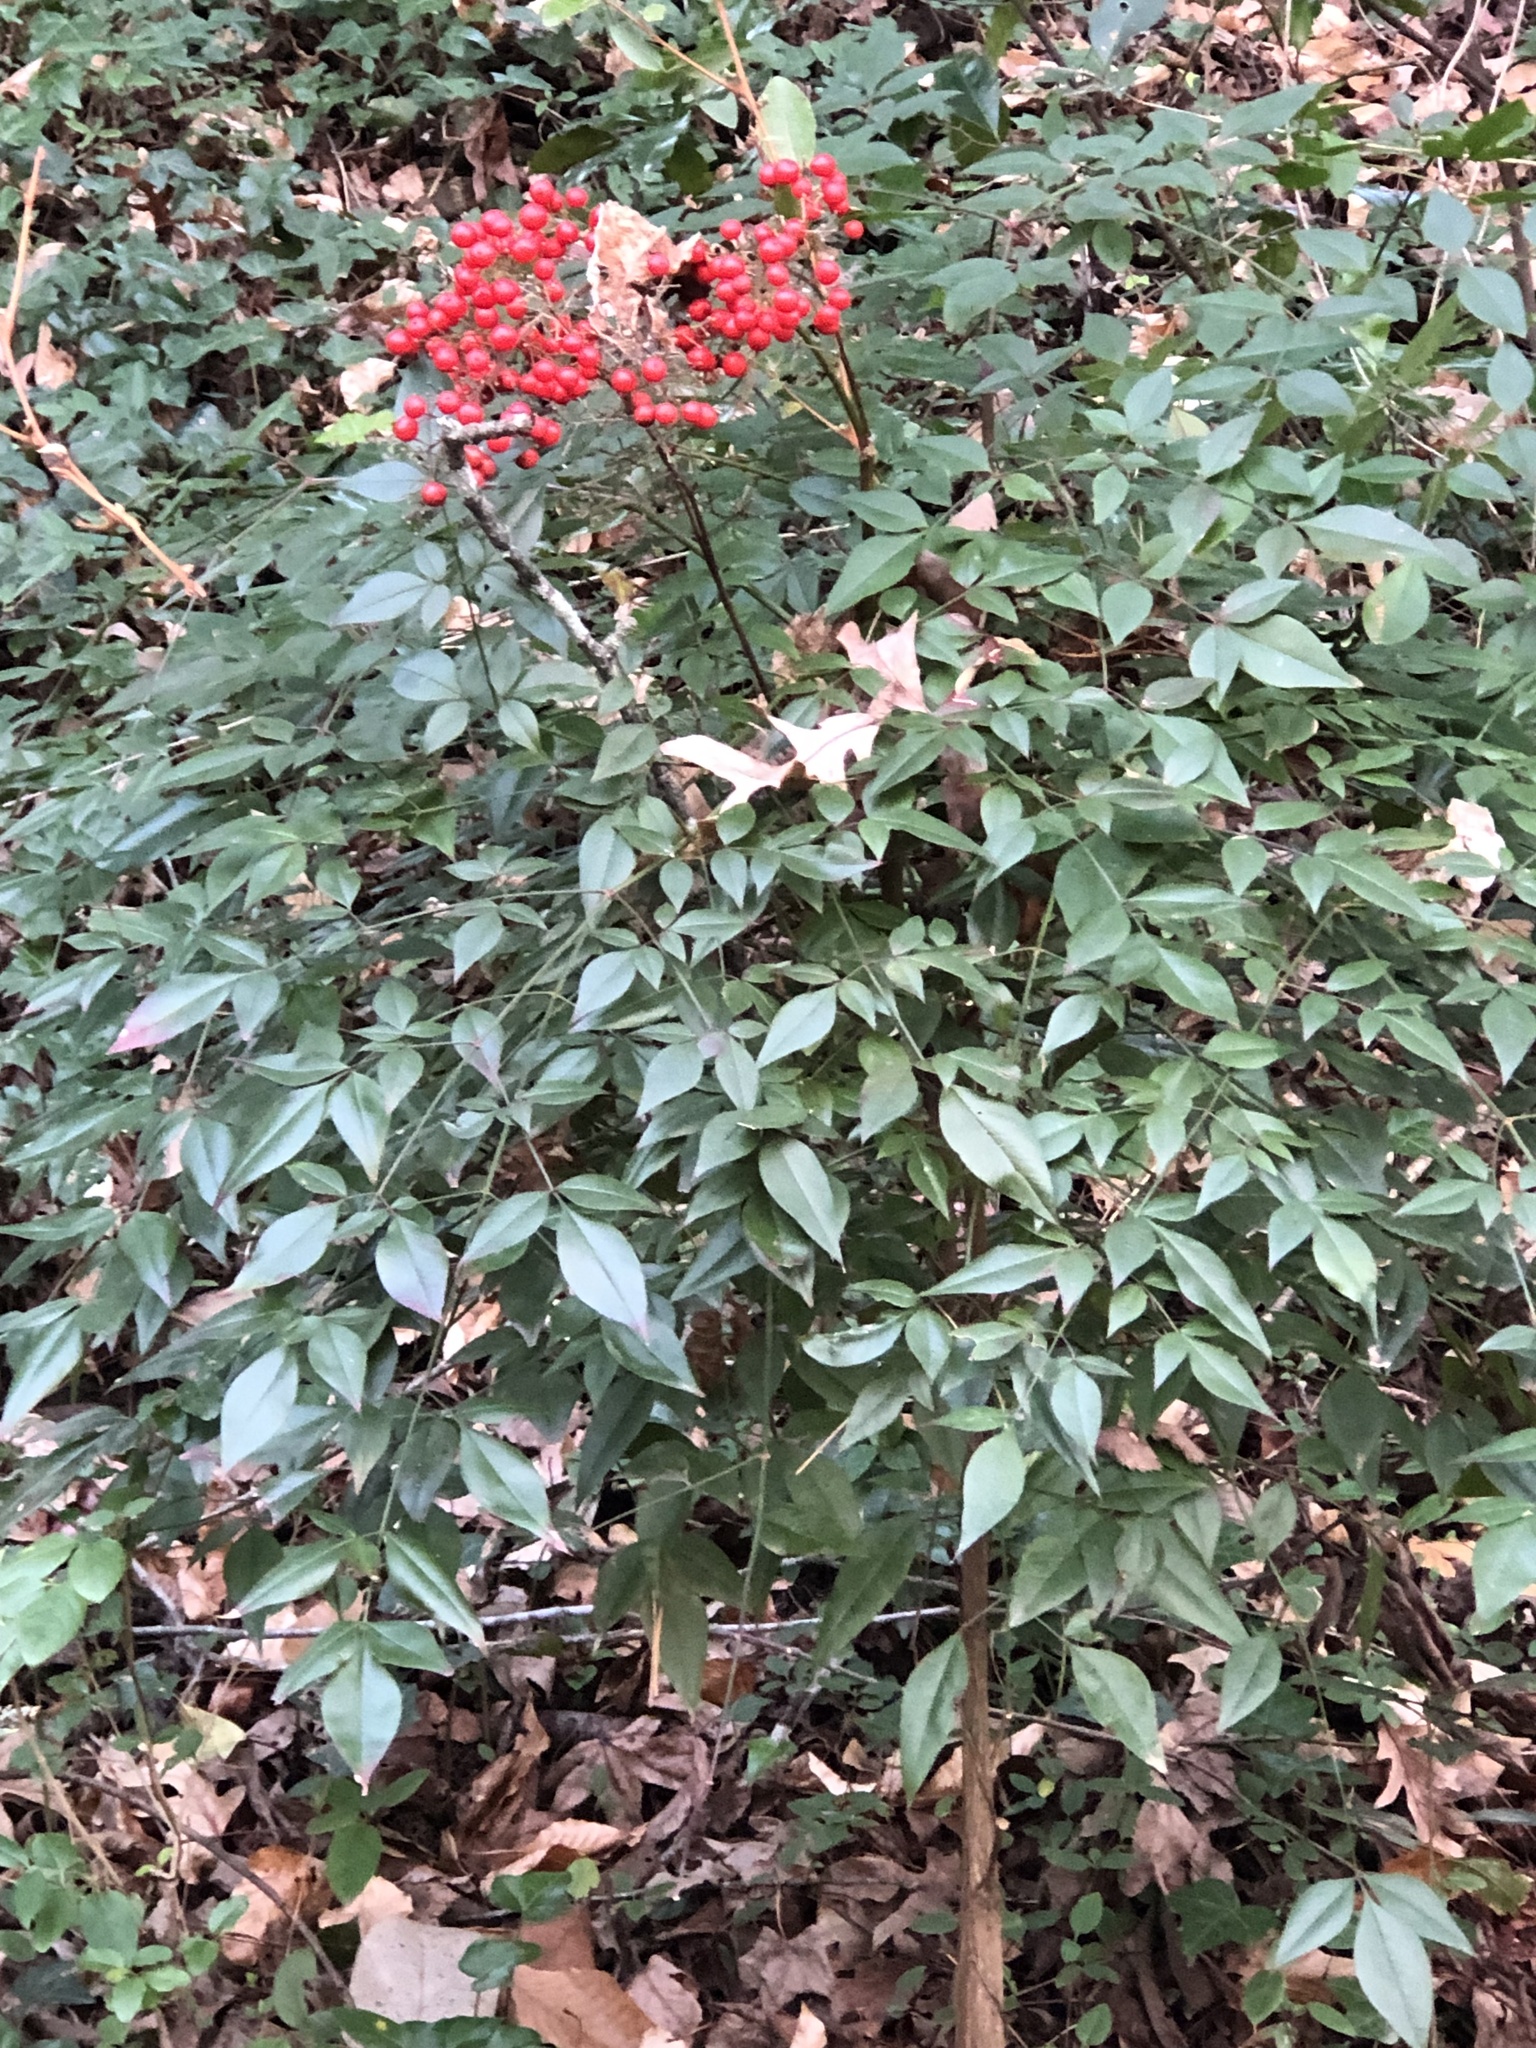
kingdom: Plantae
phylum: Tracheophyta
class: Magnoliopsida
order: Ranunculales
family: Berberidaceae
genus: Nandina
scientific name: Nandina domestica
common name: Sacred bamboo
